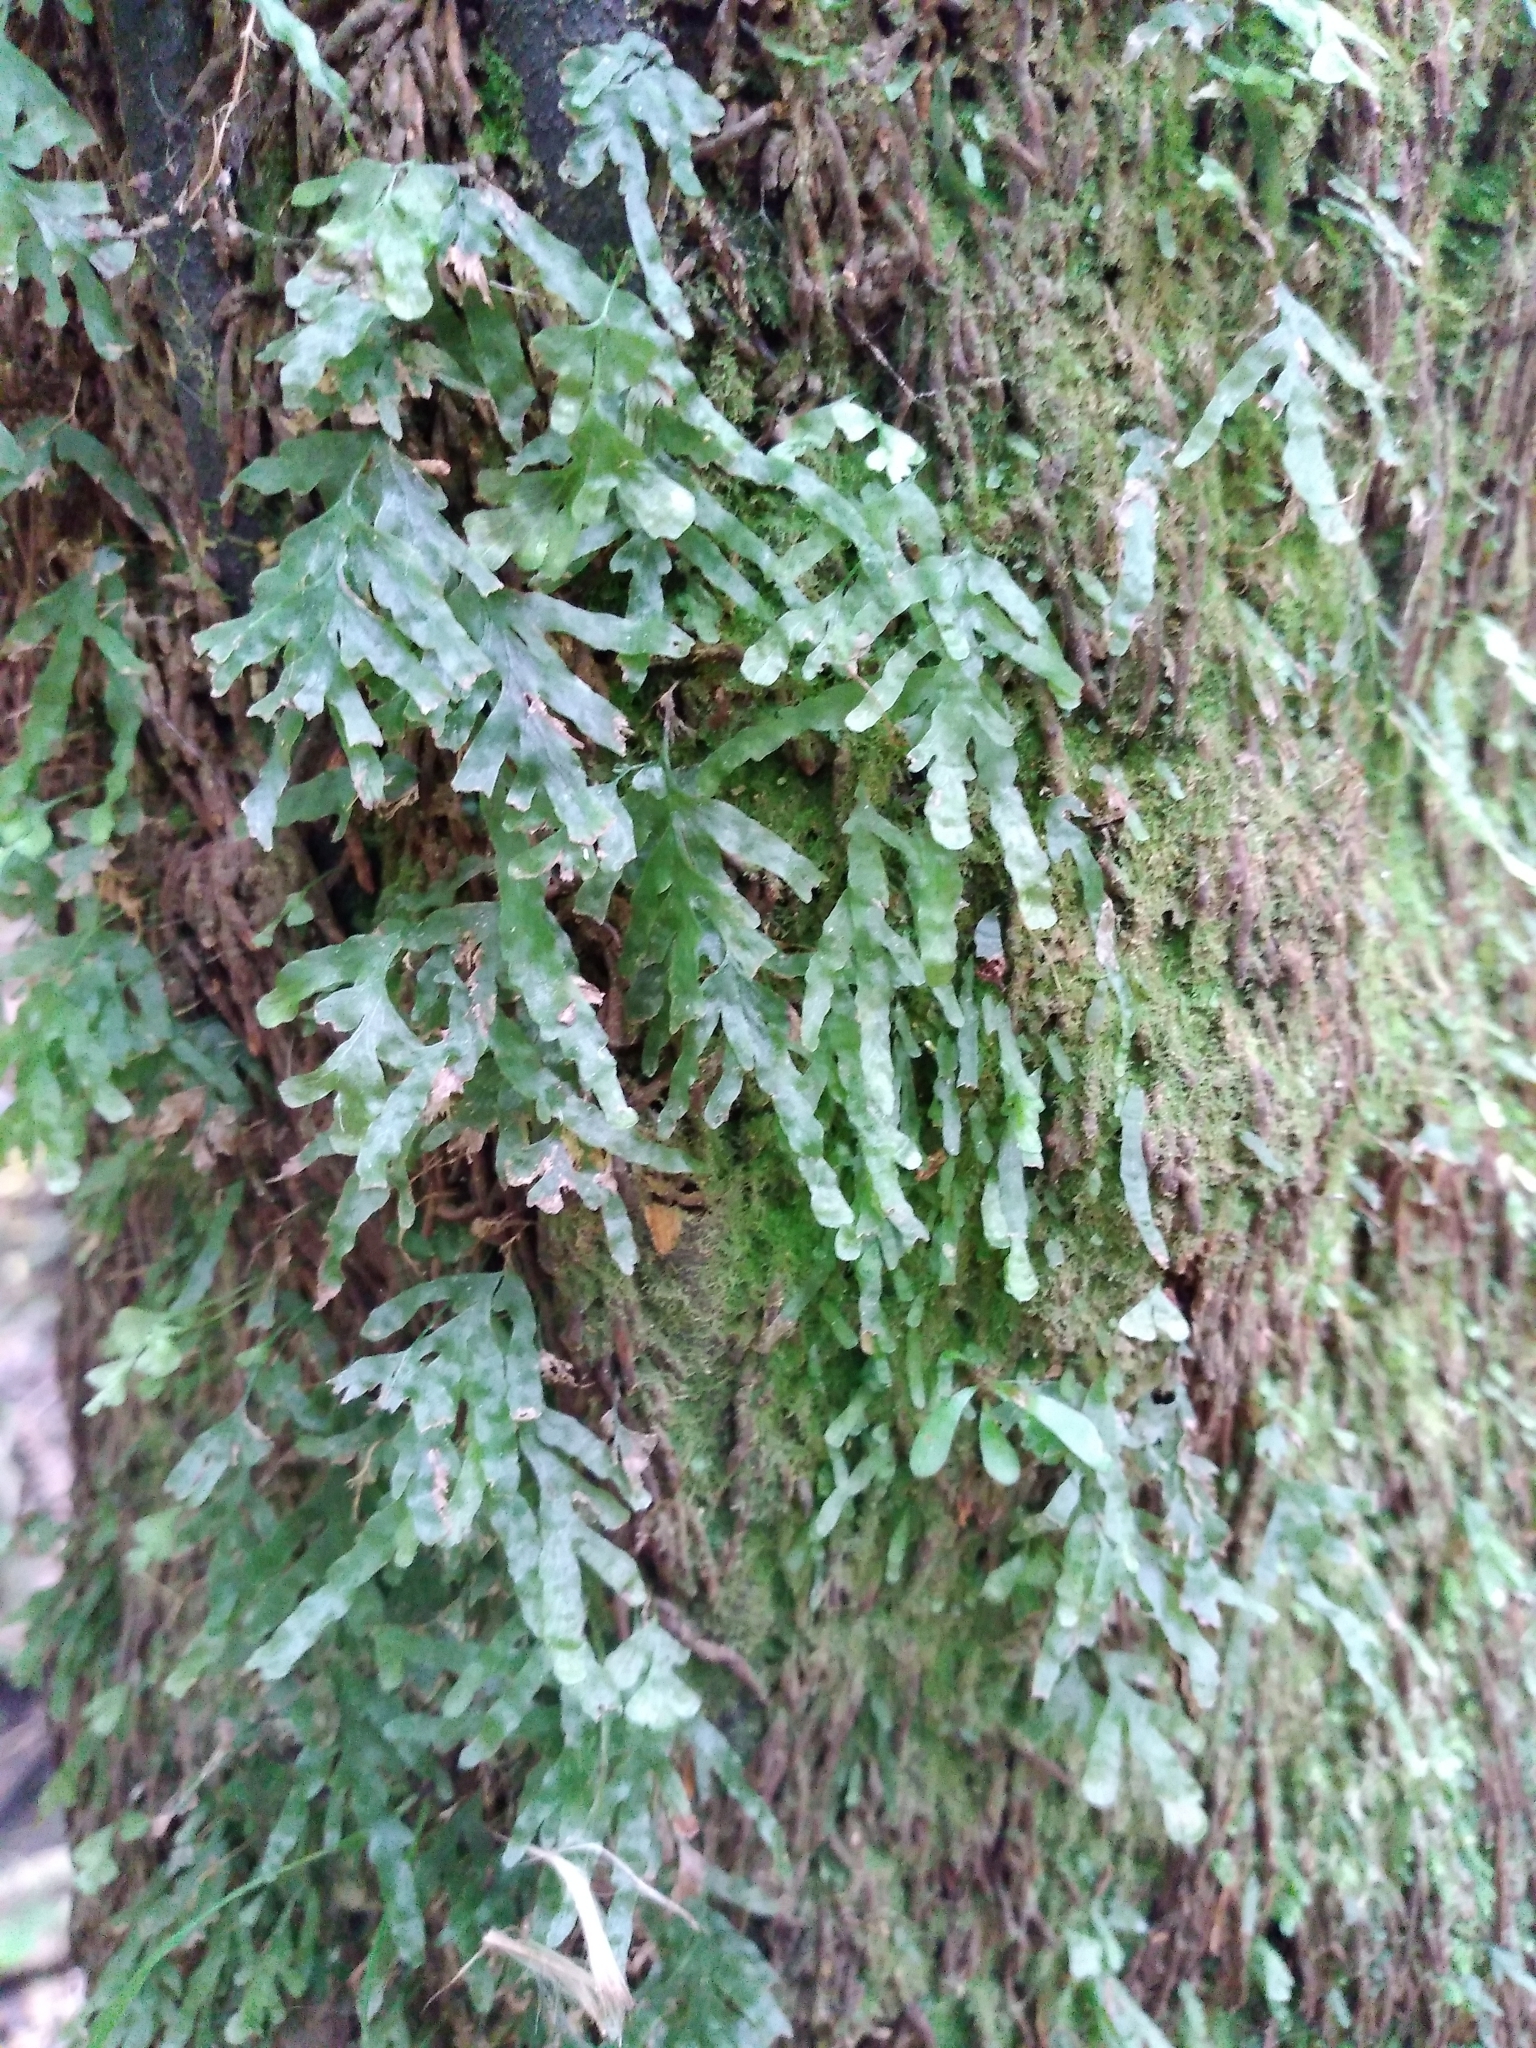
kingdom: Plantae
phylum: Tracheophyta
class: Polypodiopsida
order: Hymenophyllales
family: Hymenophyllaceae
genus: Polyphlebium
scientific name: Polyphlebium venosum
